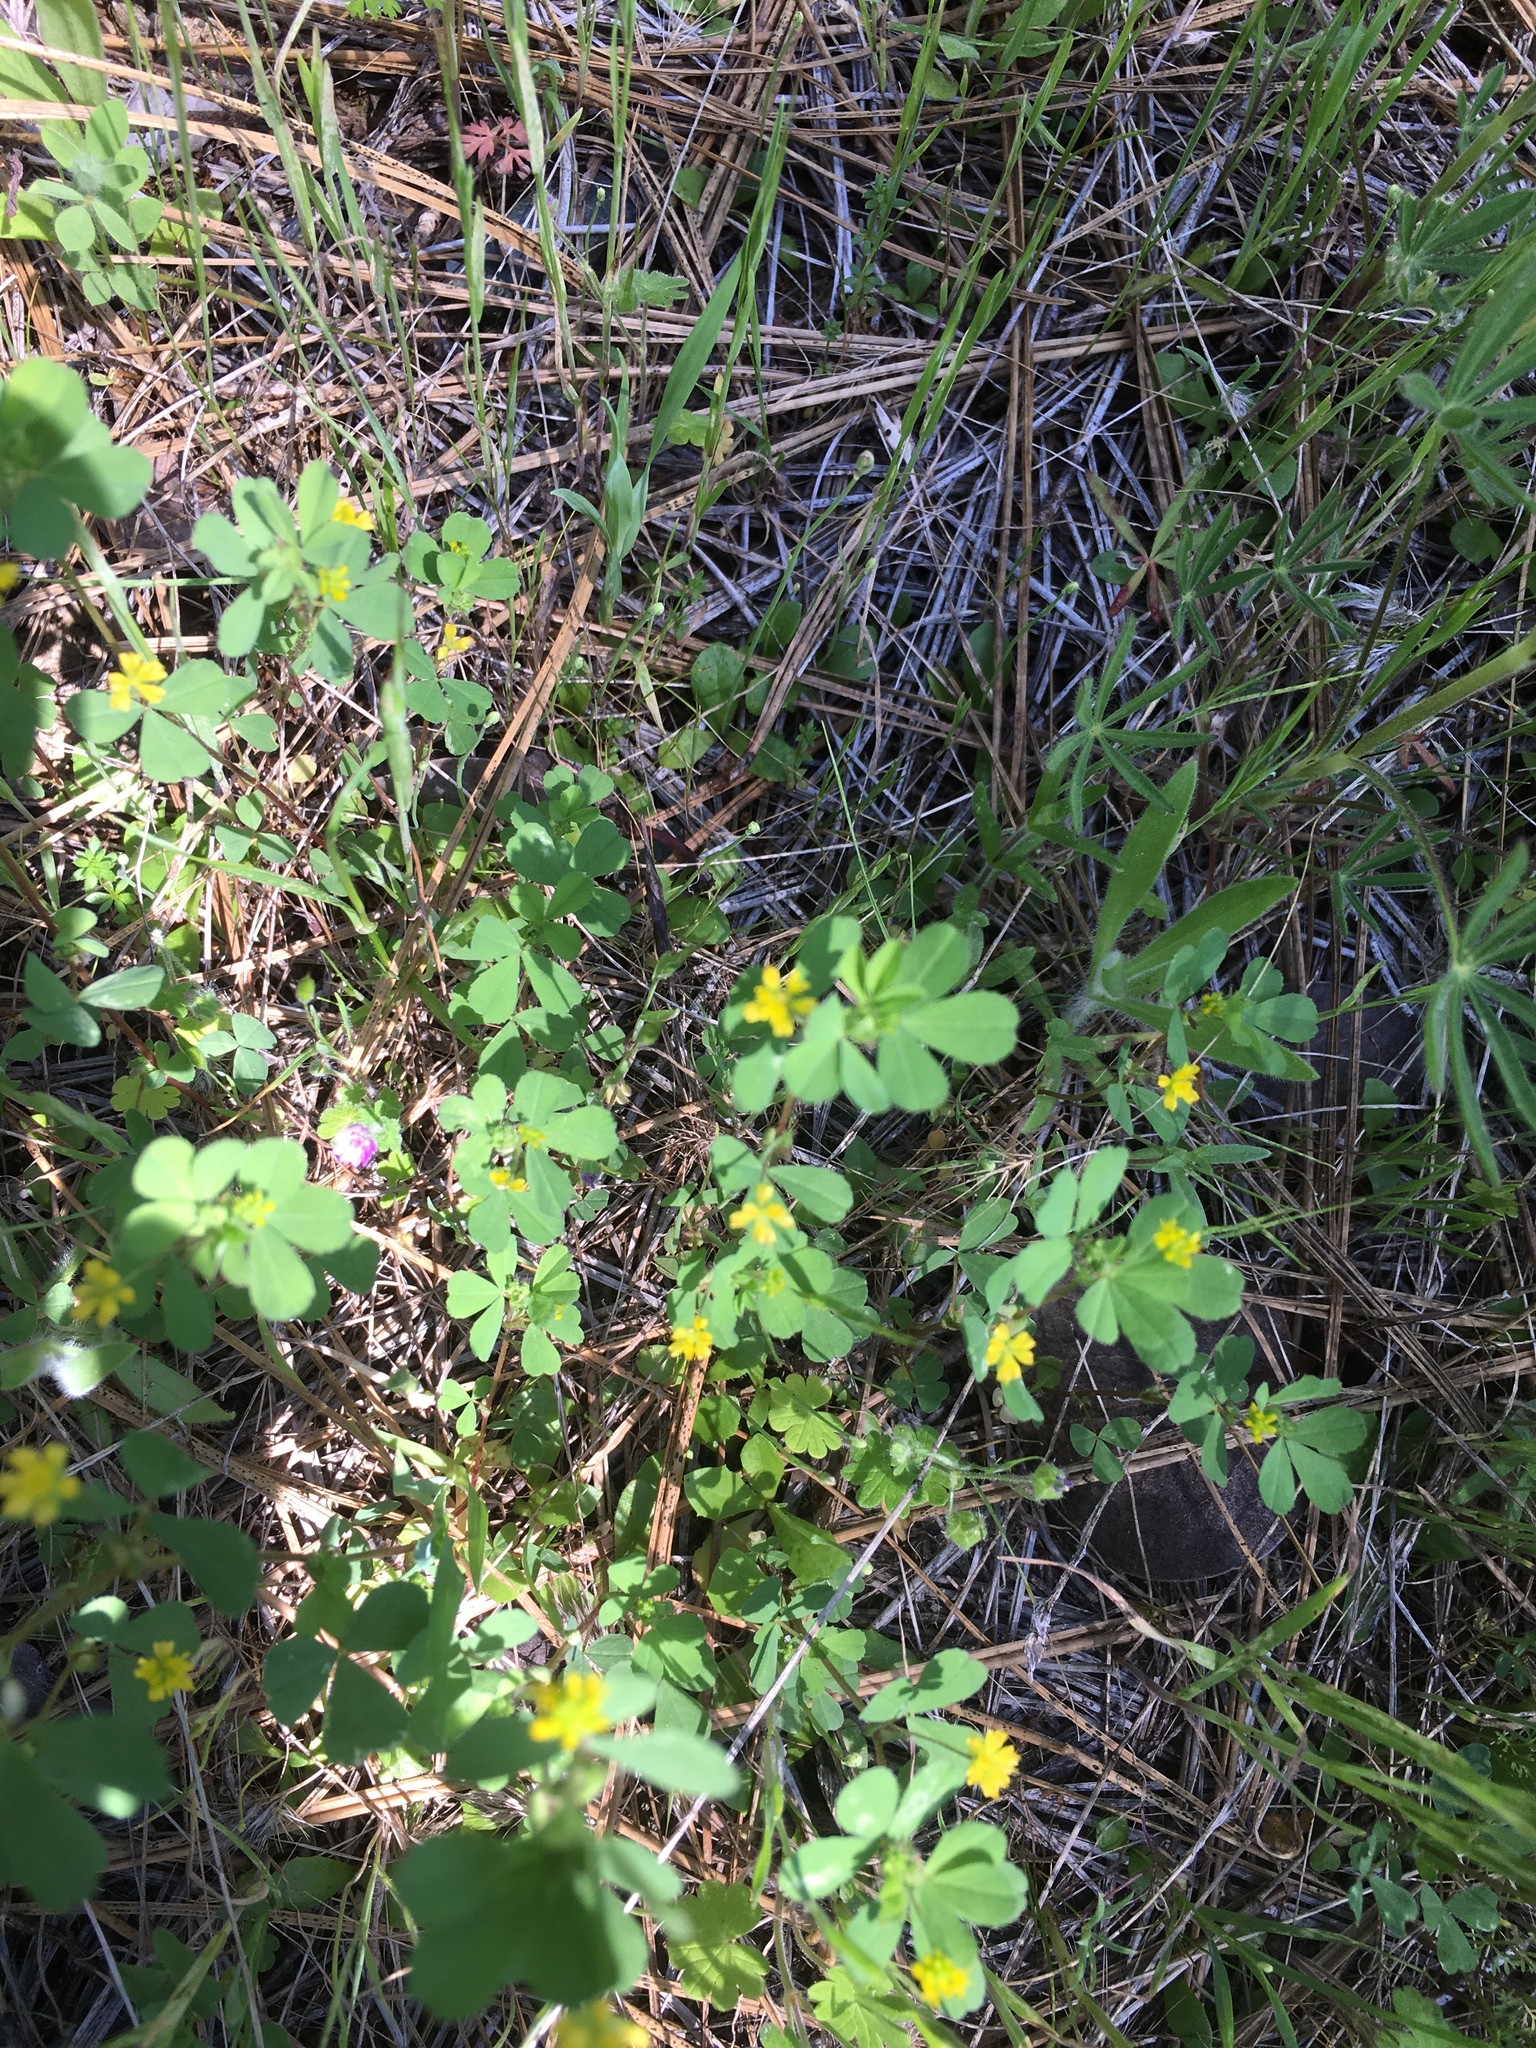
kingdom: Plantae
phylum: Tracheophyta
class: Magnoliopsida
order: Fabales
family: Fabaceae
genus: Trifolium
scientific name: Trifolium dubium
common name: Suckling clover
